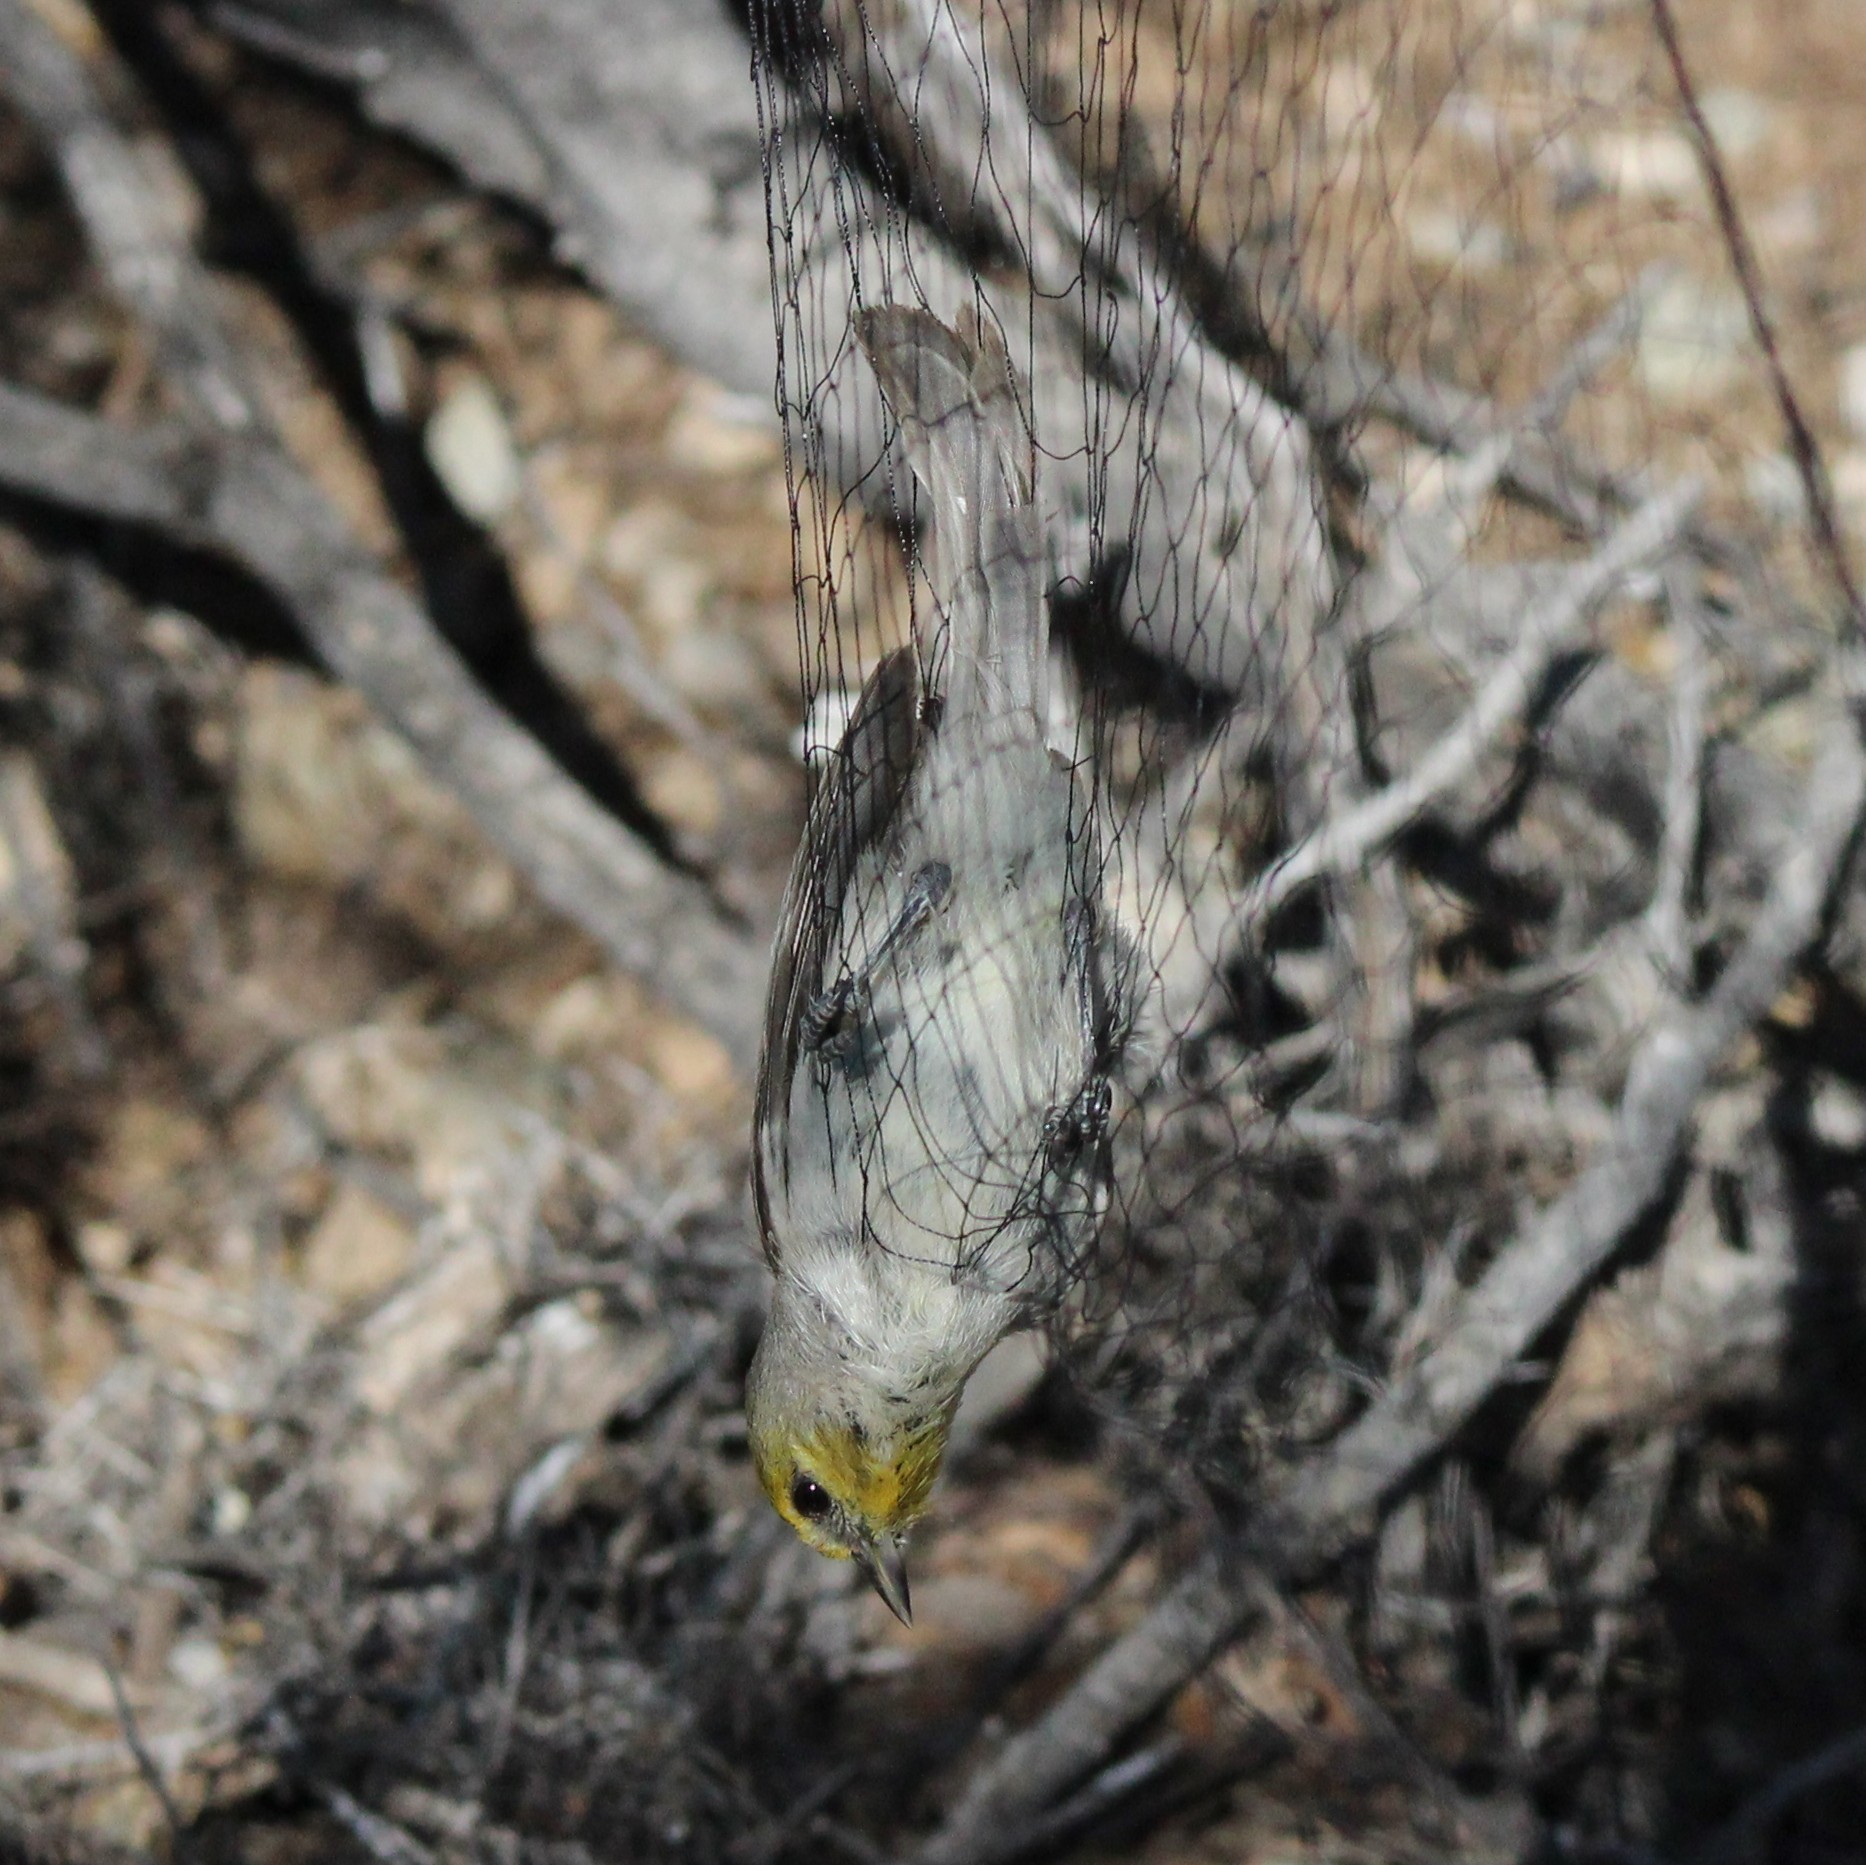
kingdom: Animalia
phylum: Chordata
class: Aves
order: Passeriformes
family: Remizidae
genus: Auriparus
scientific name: Auriparus flaviceps
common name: Verdin
